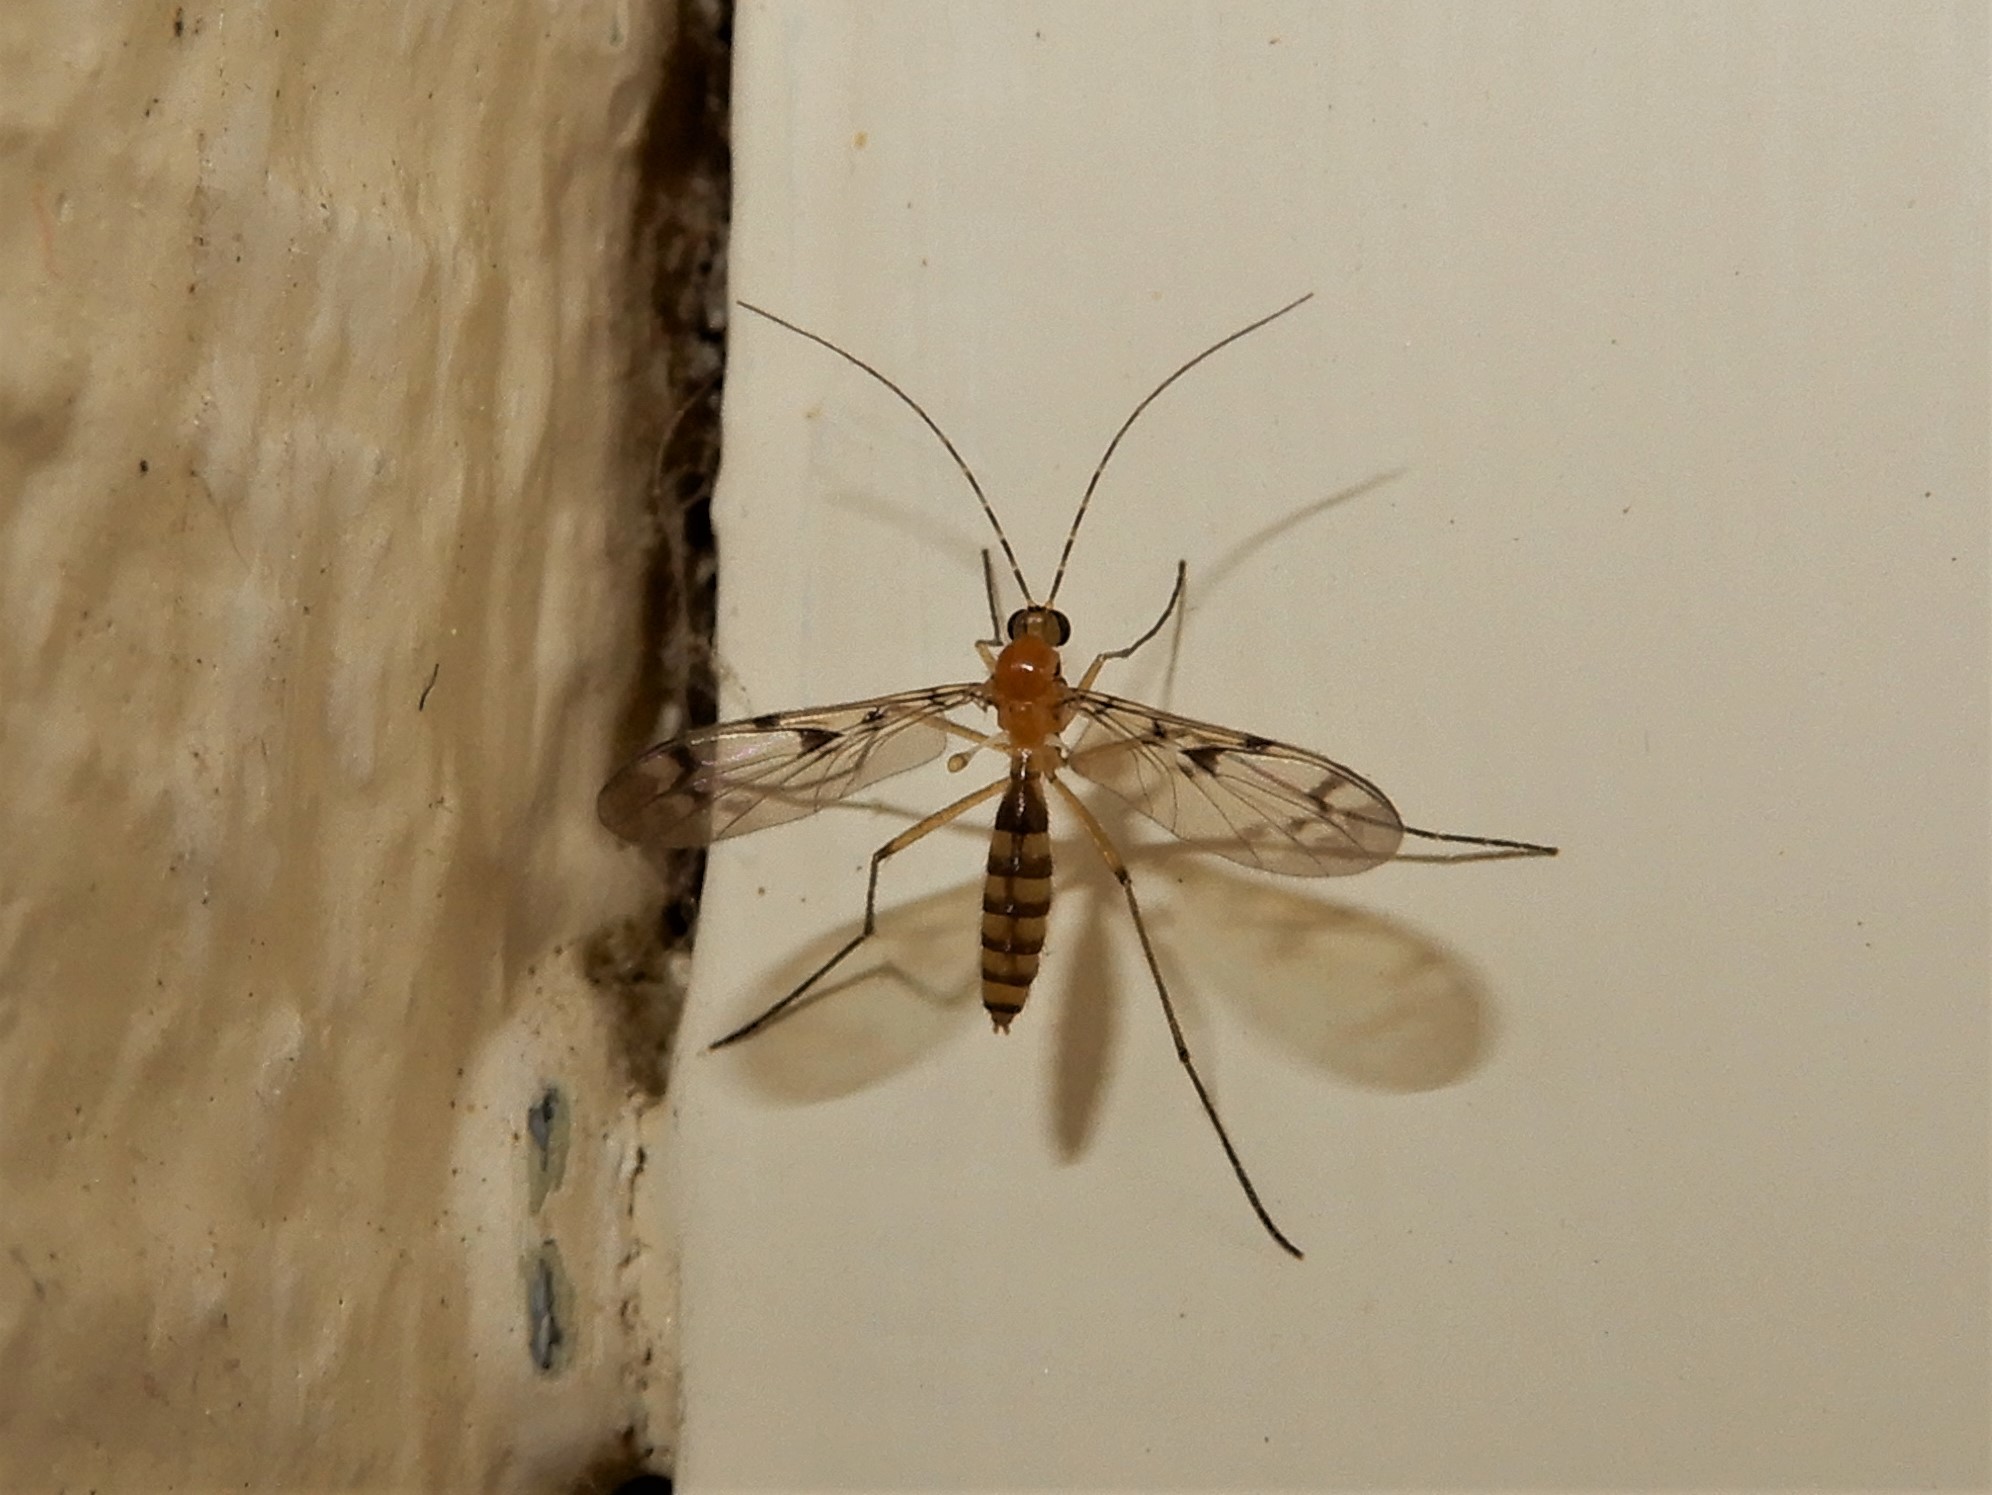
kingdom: Animalia
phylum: Arthropoda
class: Insecta
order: Diptera
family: Keroplatidae
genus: Chiasmoneura
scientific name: Chiasmoneura milligani
